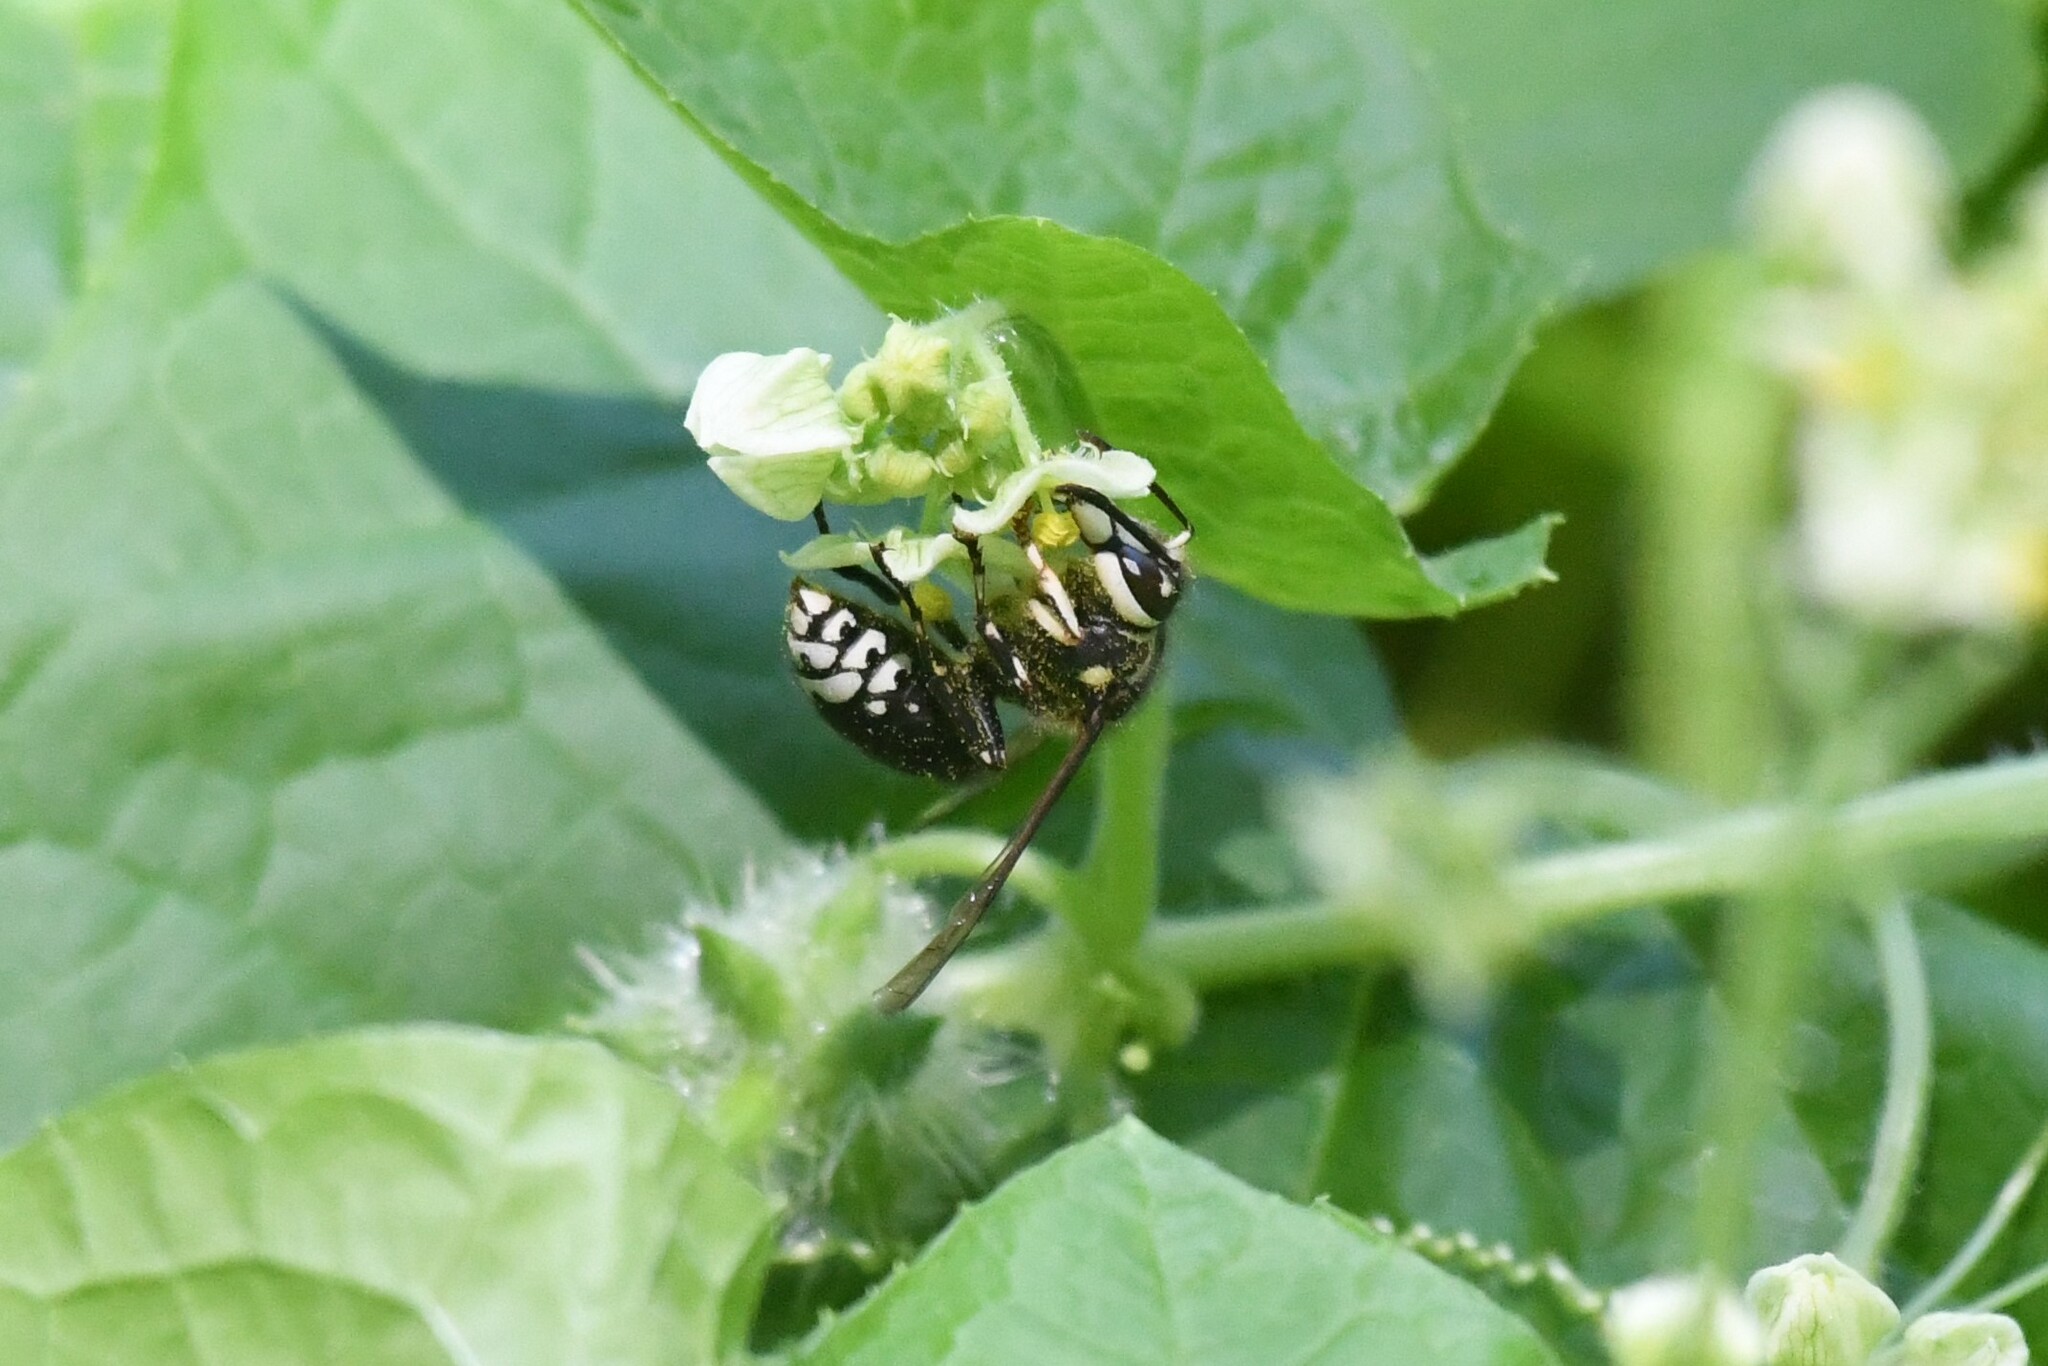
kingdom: Animalia
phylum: Arthropoda
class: Insecta
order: Hymenoptera
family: Vespidae
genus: Dolichovespula
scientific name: Dolichovespula maculata
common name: Bald-faced hornet
